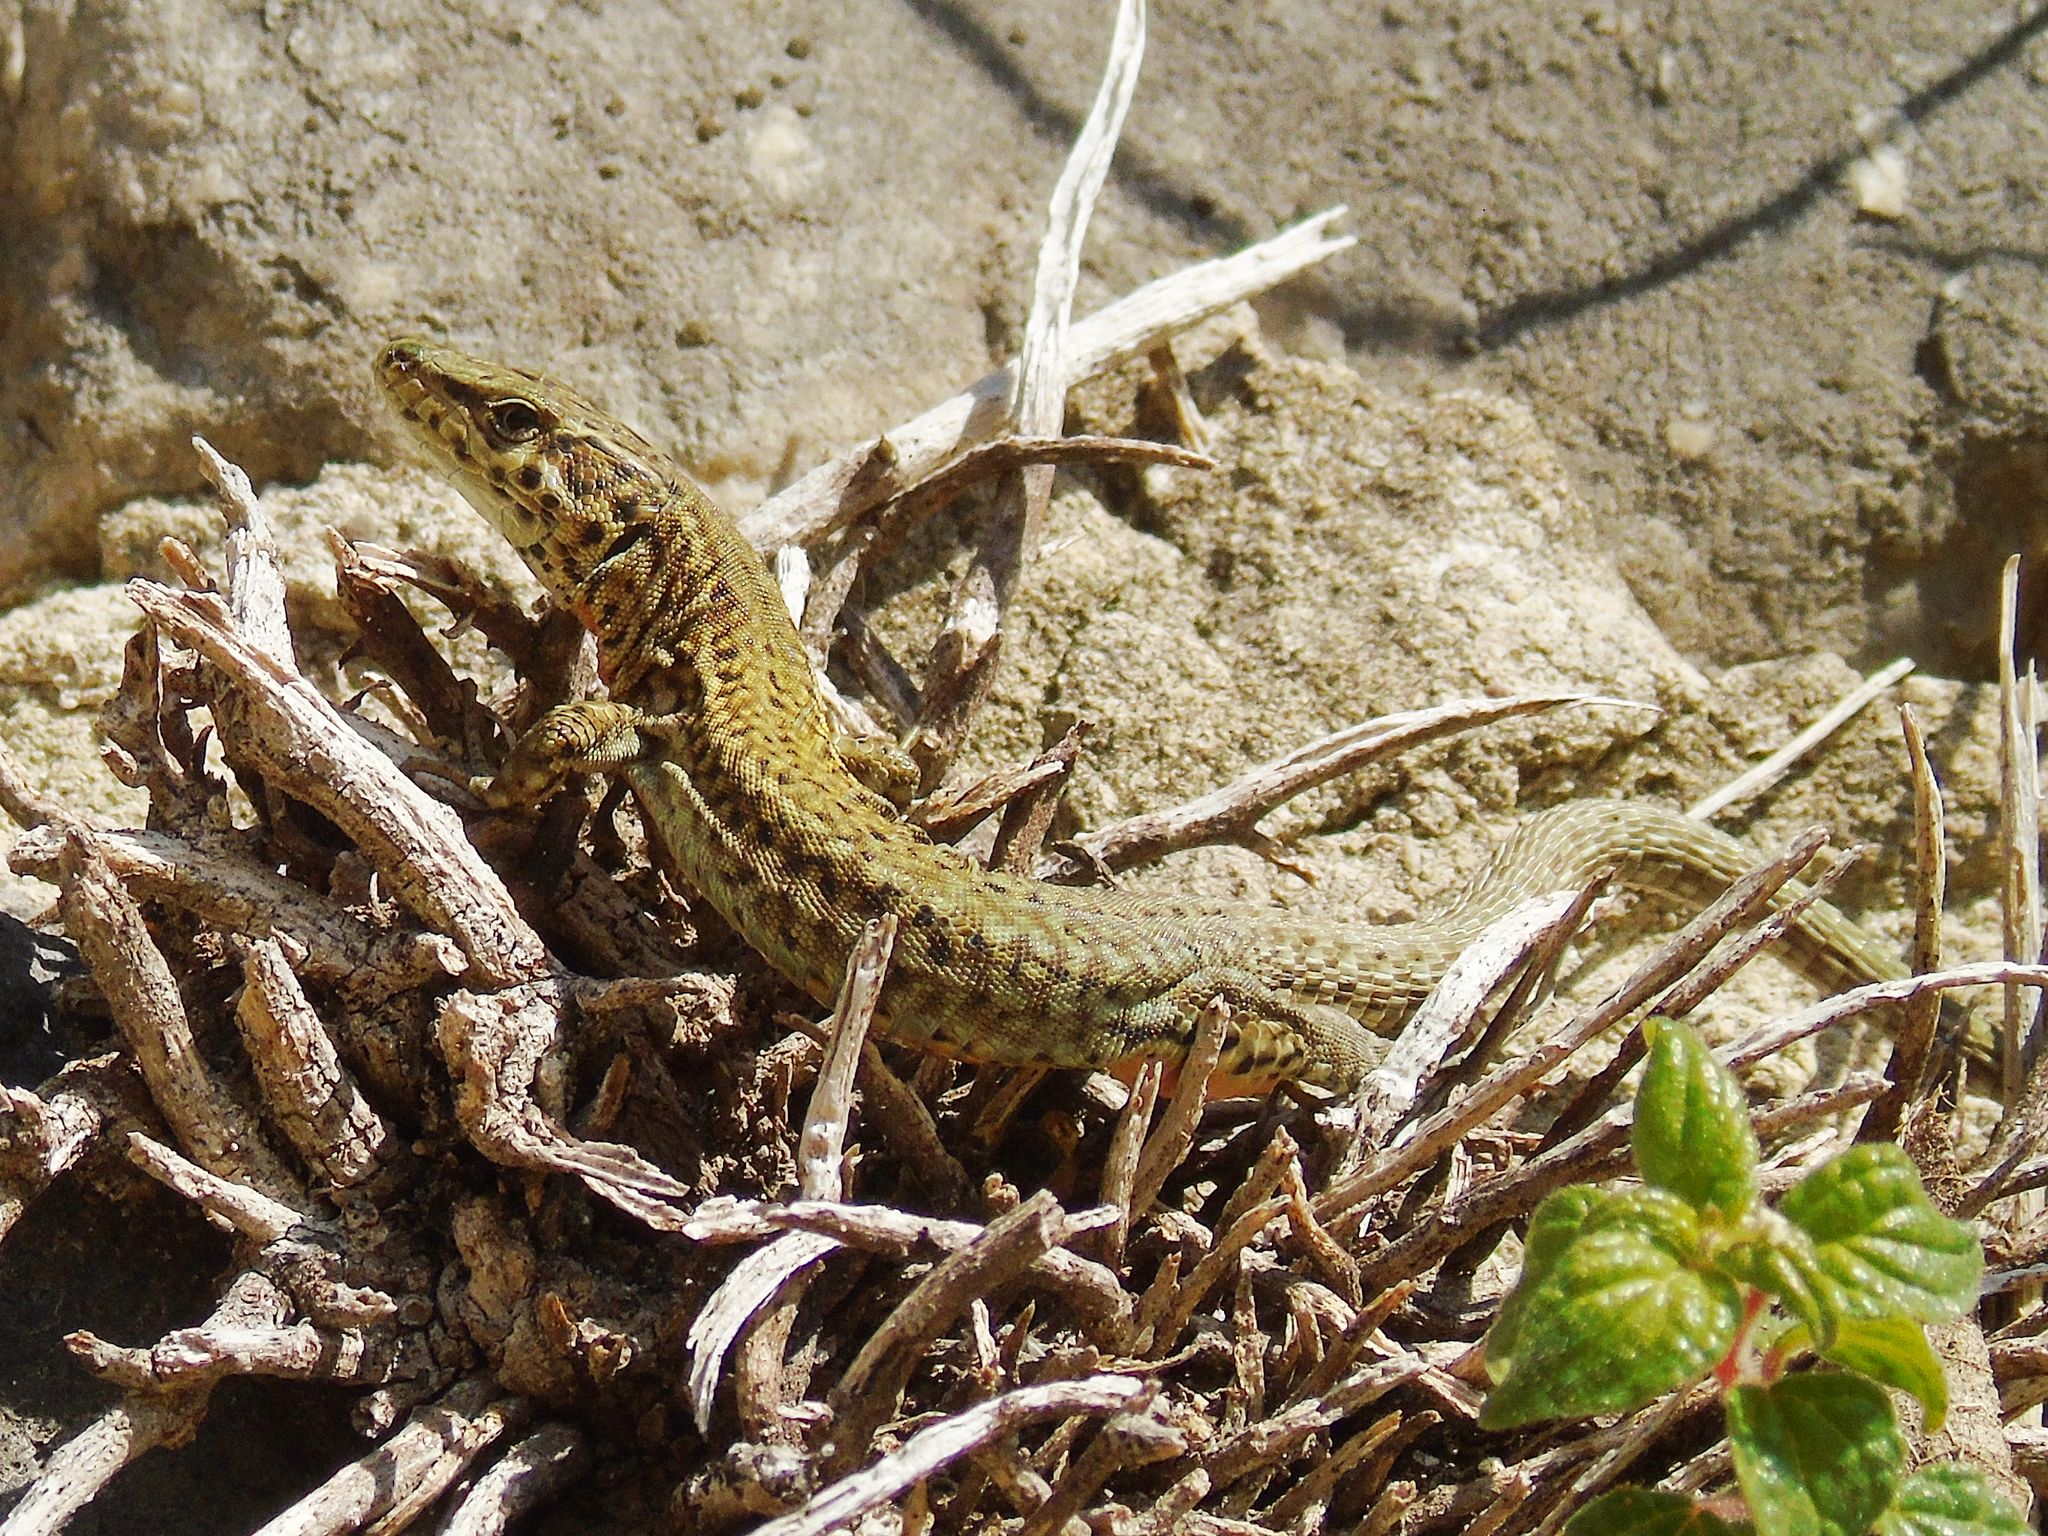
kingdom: Animalia
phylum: Chordata
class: Squamata
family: Lacertidae
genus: Podarcis
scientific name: Podarcis liolepis
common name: Catalonian wall lizard
